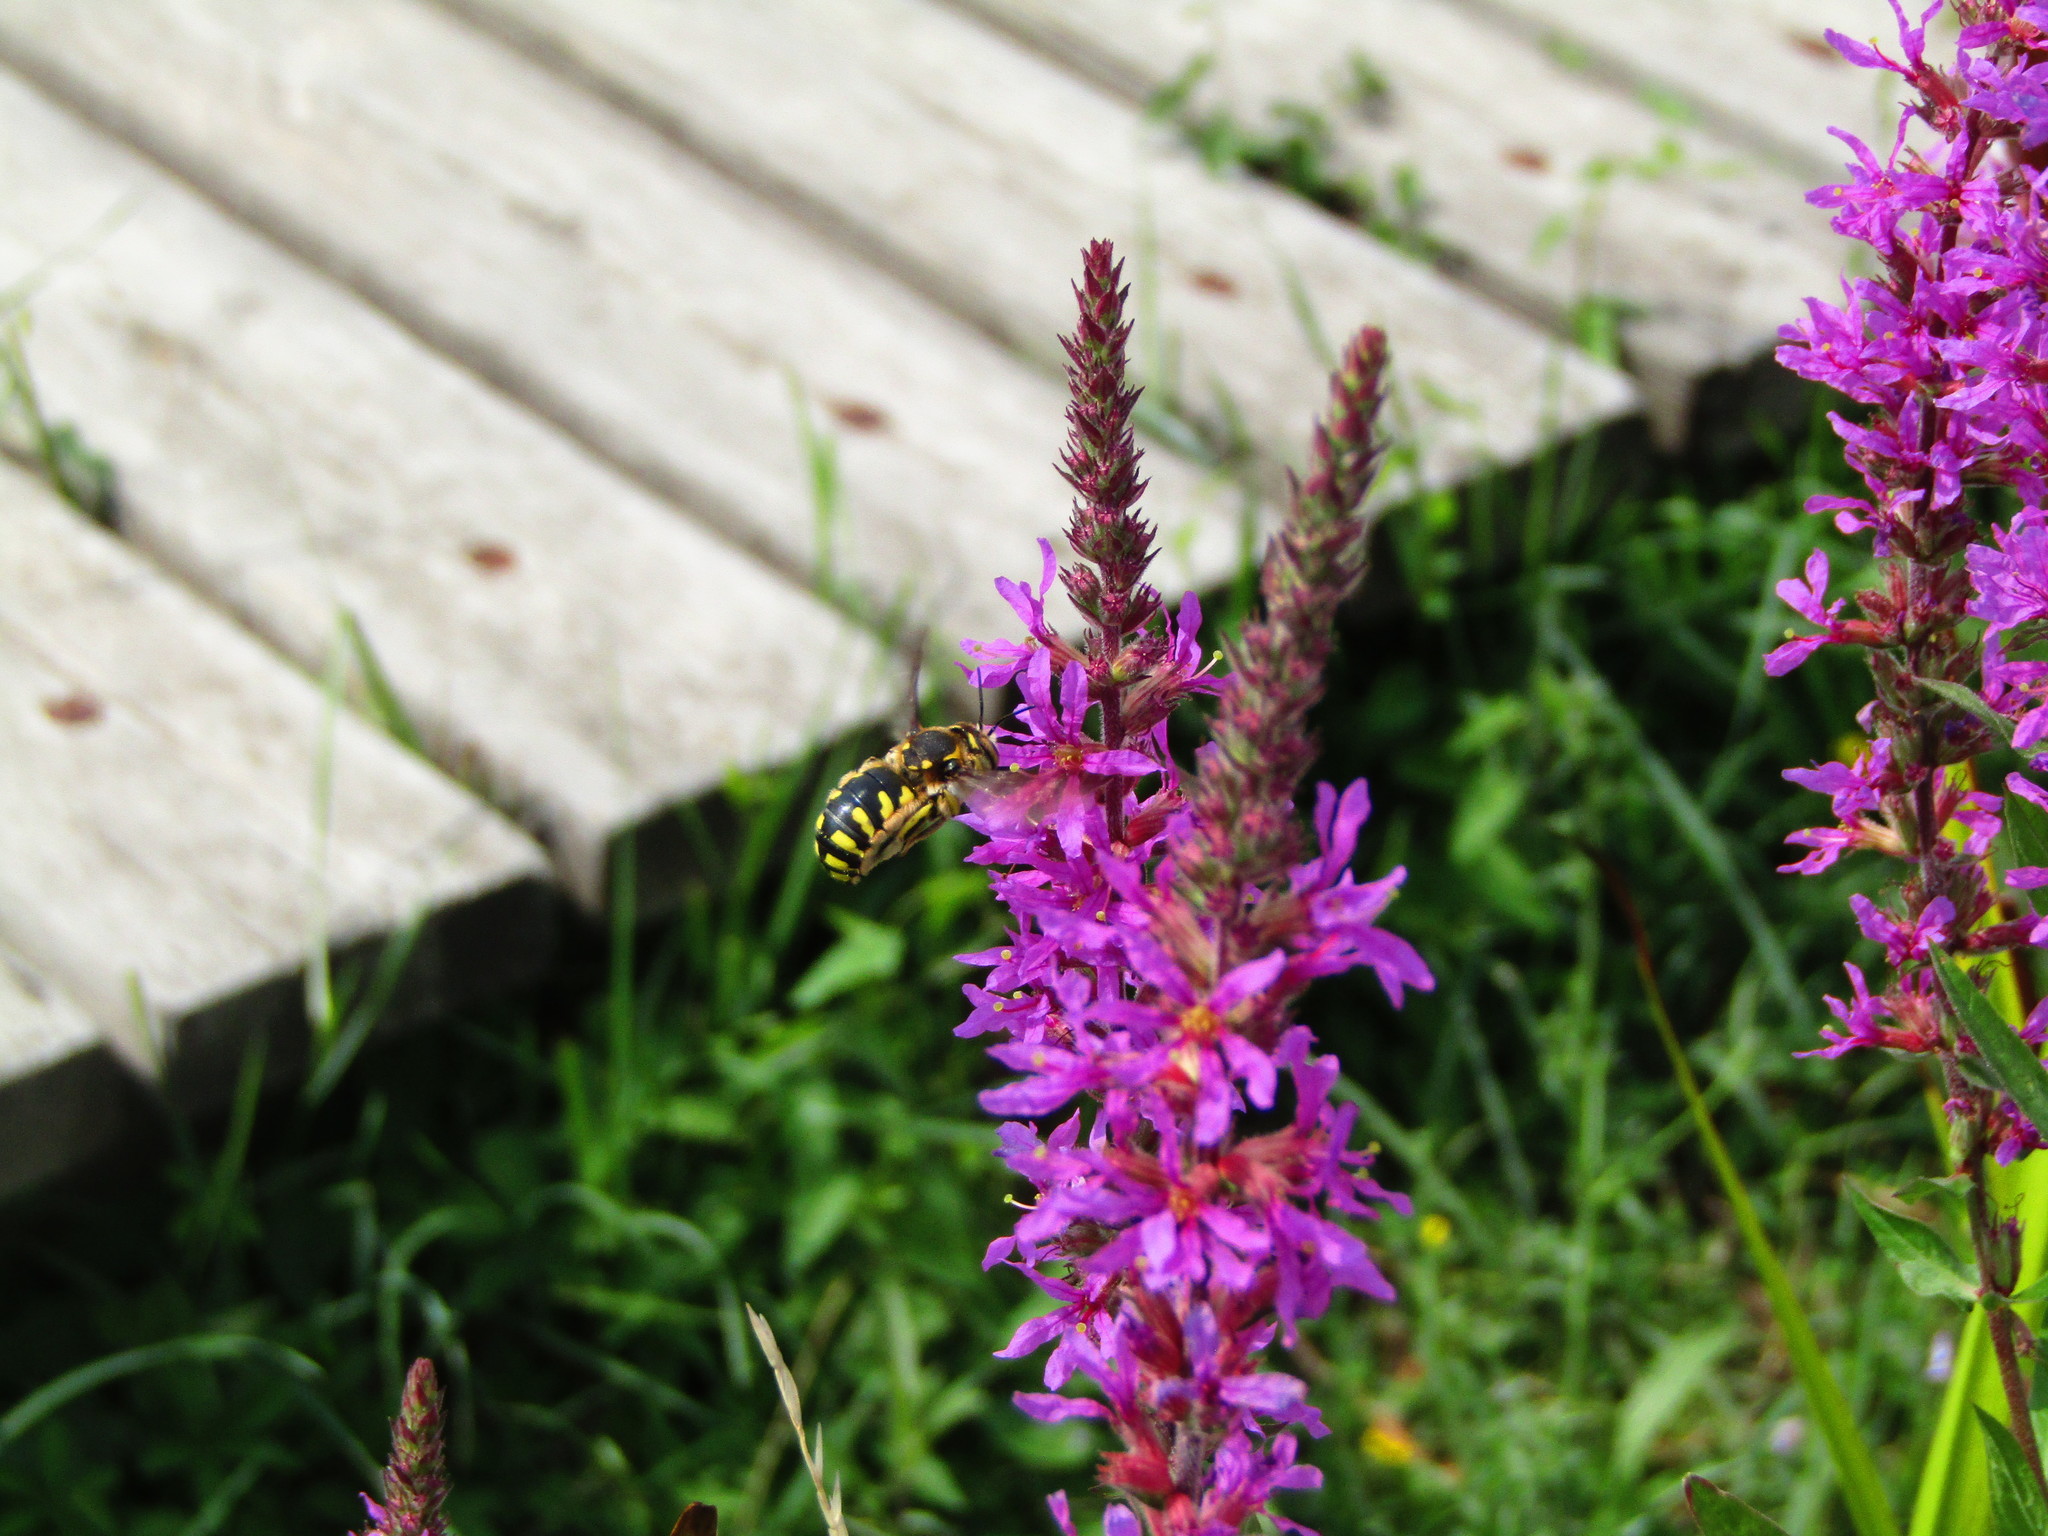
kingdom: Animalia
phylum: Arthropoda
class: Insecta
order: Hymenoptera
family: Megachilidae
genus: Anthidium
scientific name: Anthidium florentinum
